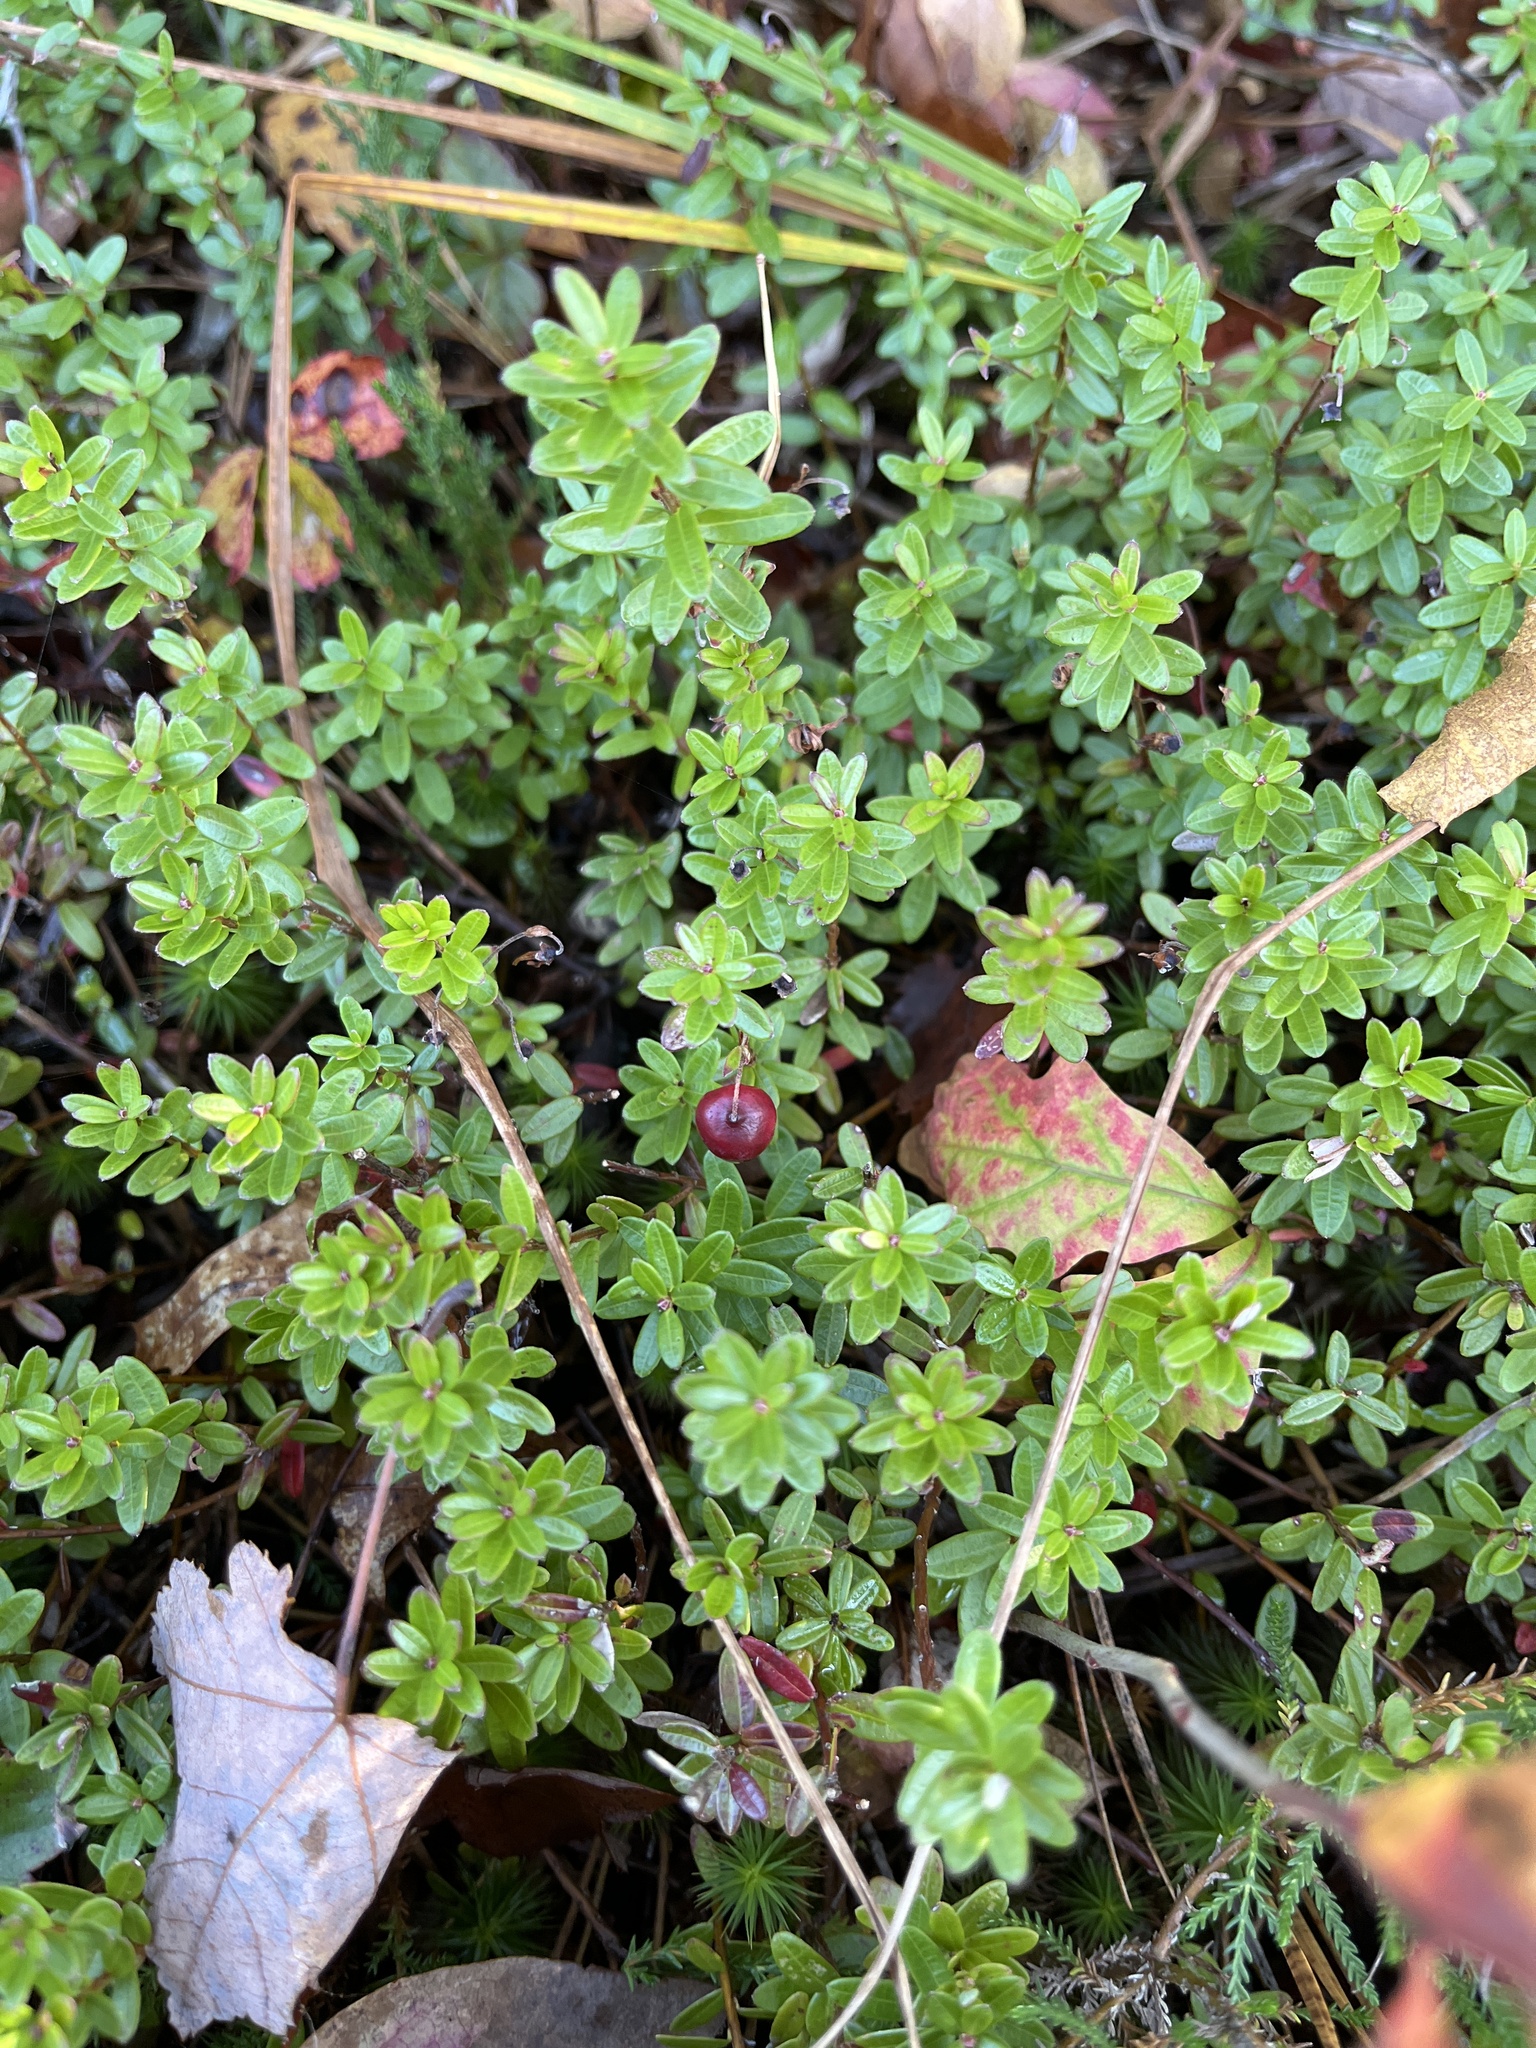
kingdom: Plantae
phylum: Tracheophyta
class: Magnoliopsida
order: Ericales
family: Ericaceae
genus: Vaccinium
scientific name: Vaccinium macrocarpon
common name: American cranberry
